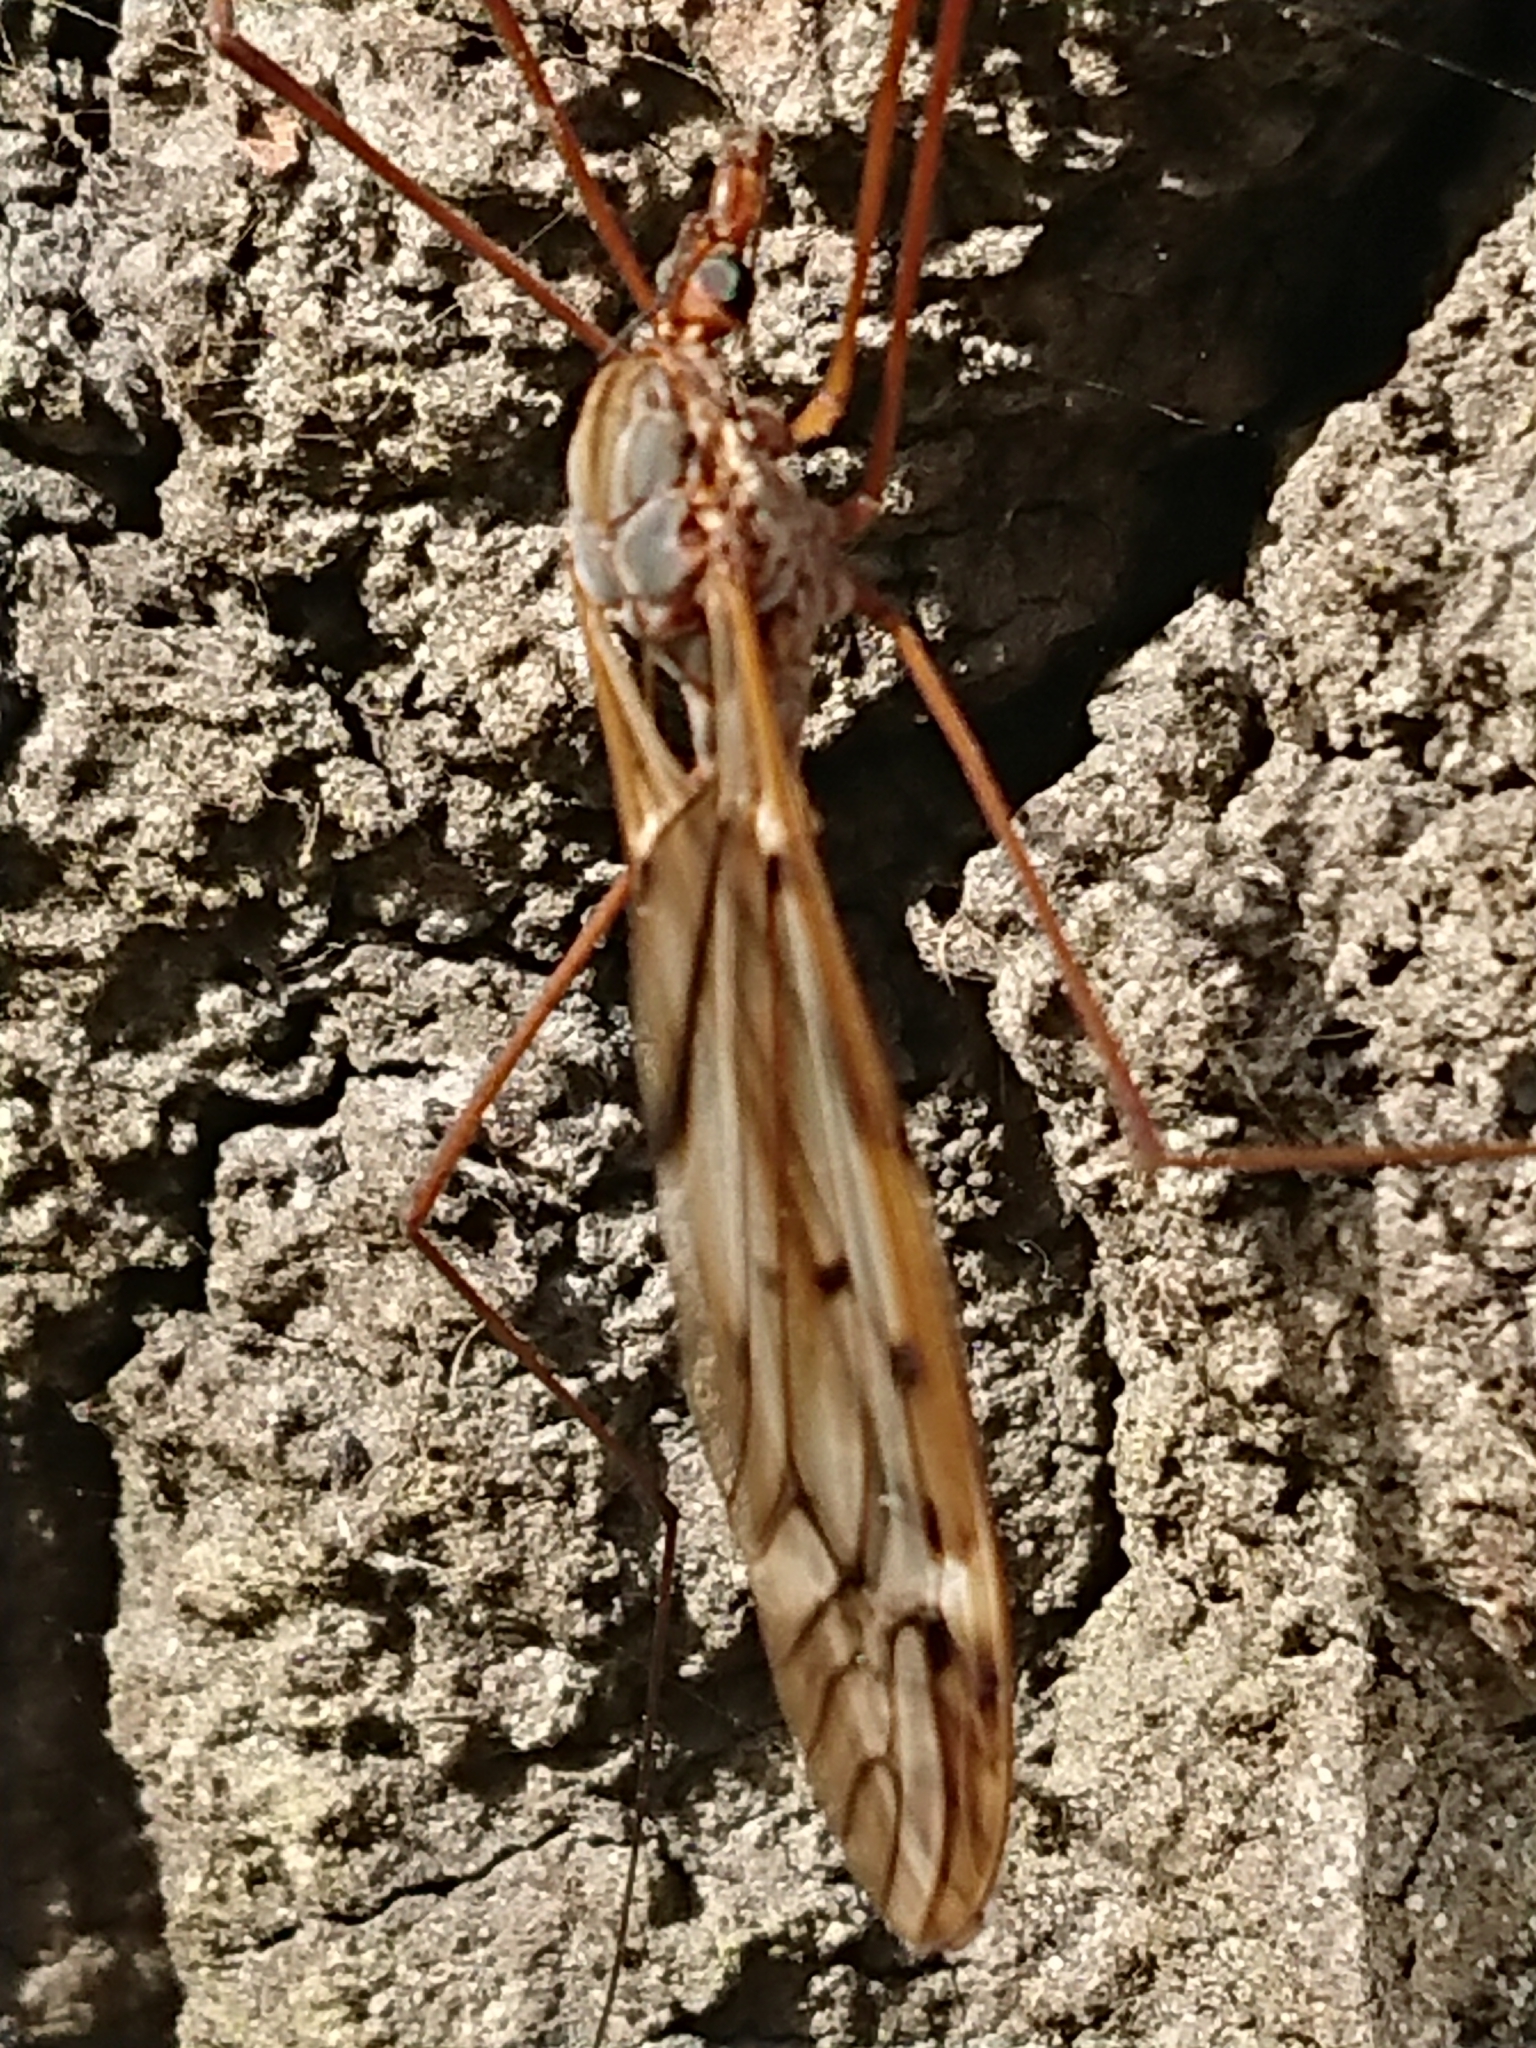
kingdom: Animalia
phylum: Arthropoda
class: Insecta
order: Diptera
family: Tipulidae
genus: Zelandotipula
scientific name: Zelandotipula novarae
